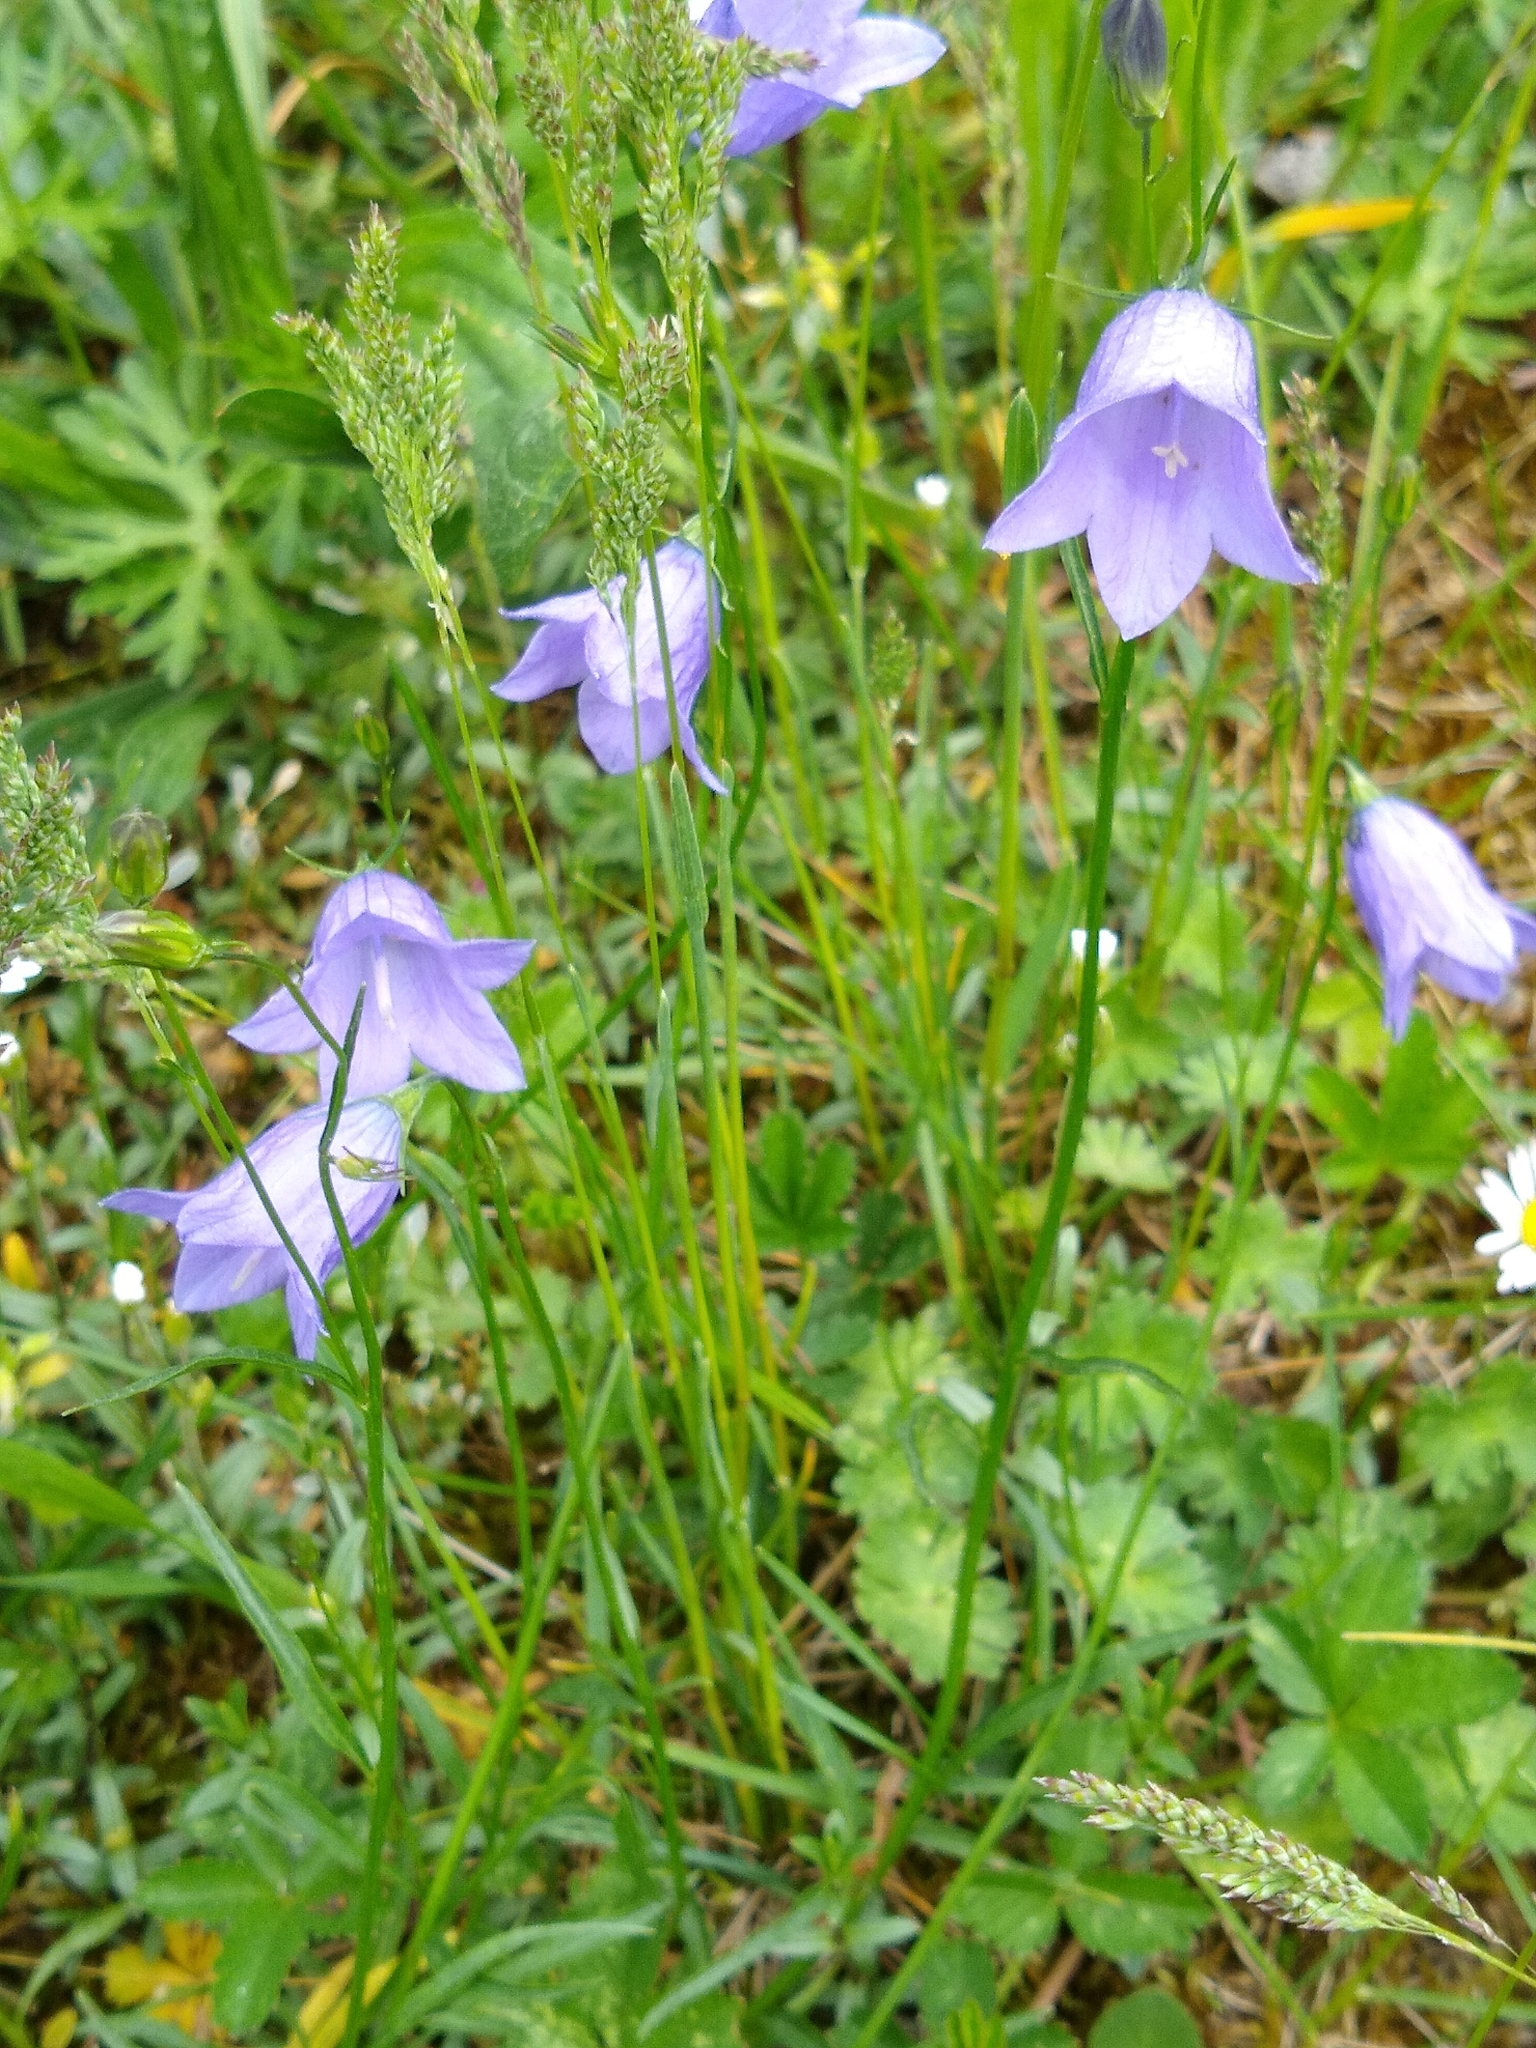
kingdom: Plantae
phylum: Tracheophyta
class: Magnoliopsida
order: Asterales
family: Campanulaceae
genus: Campanula
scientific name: Campanula rotundifolia
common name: Harebell
